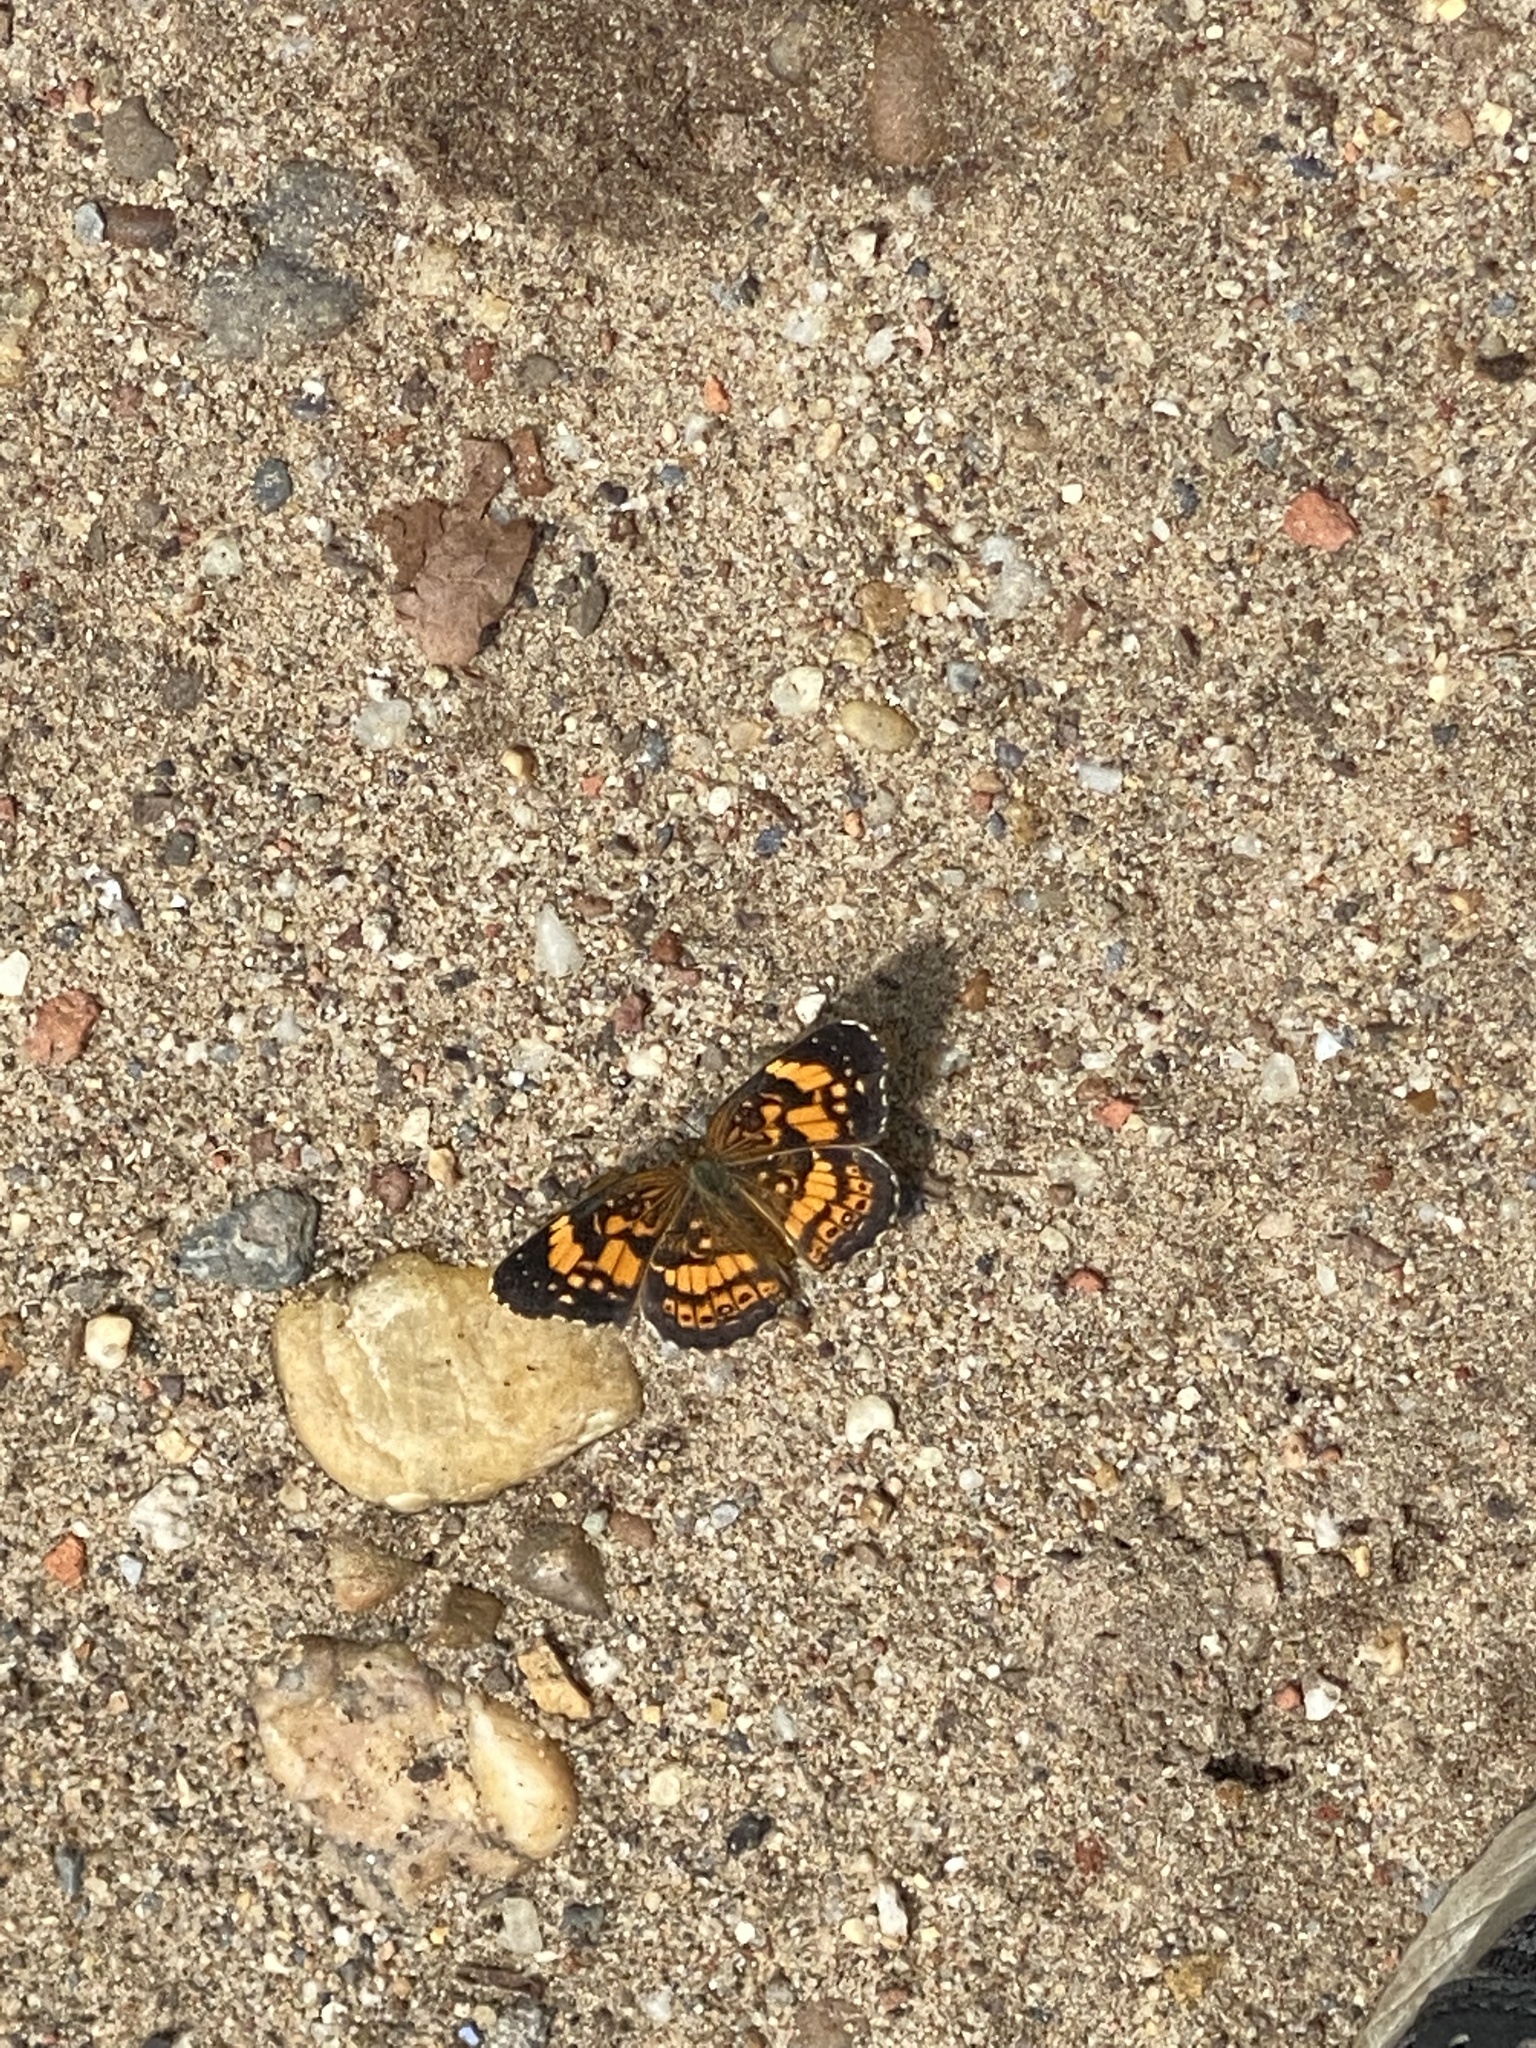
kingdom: Animalia
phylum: Arthropoda
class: Insecta
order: Lepidoptera
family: Nymphalidae
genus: Chlosyne
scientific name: Chlosyne nycteis
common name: Silvery checkerspot
